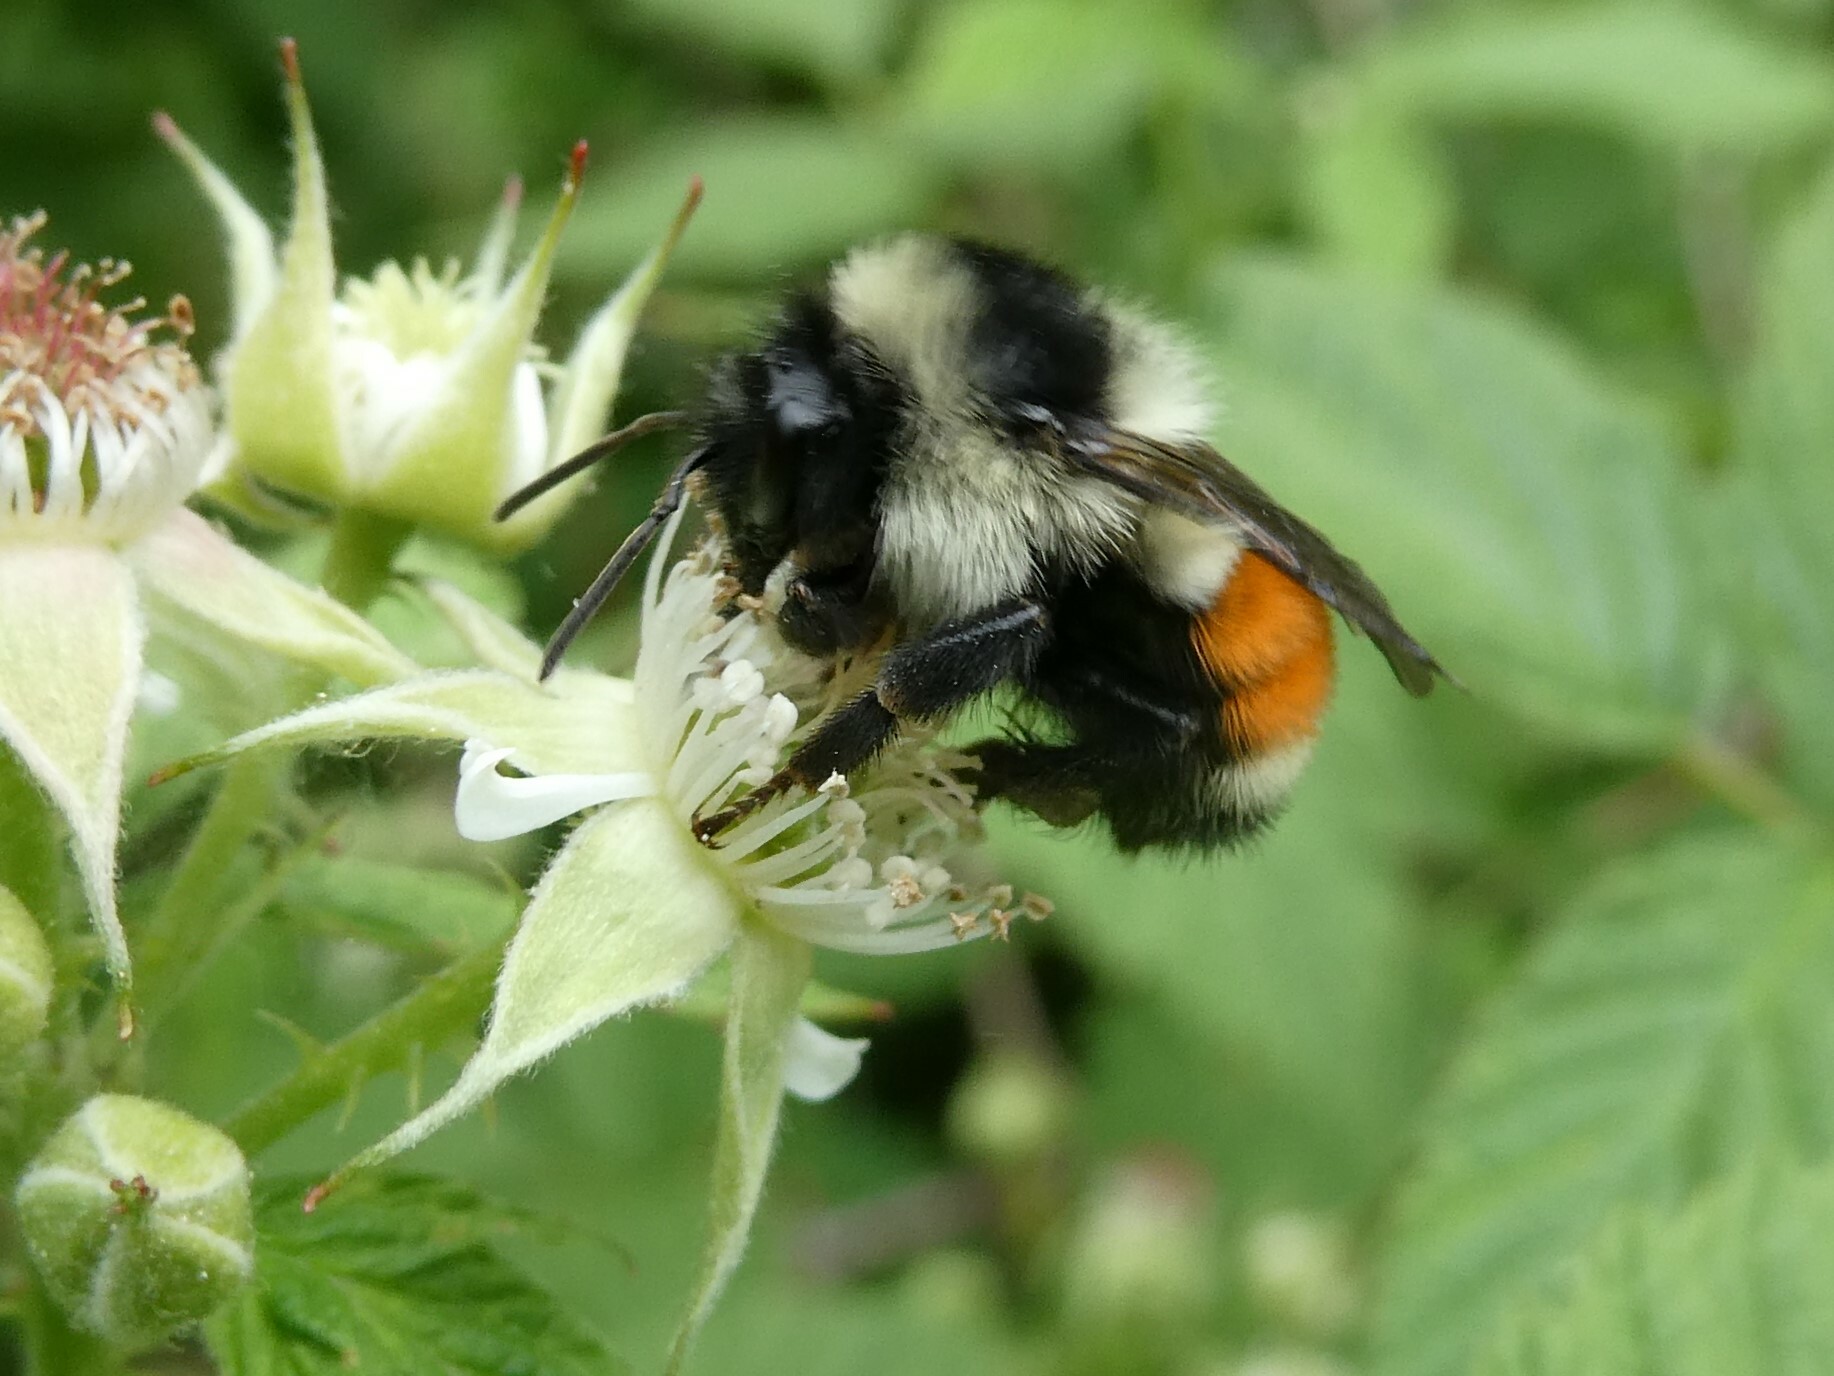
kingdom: Animalia
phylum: Arthropoda
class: Insecta
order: Hymenoptera
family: Apidae
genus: Bombus
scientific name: Bombus ternarius
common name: Tri-colored bumble bee
